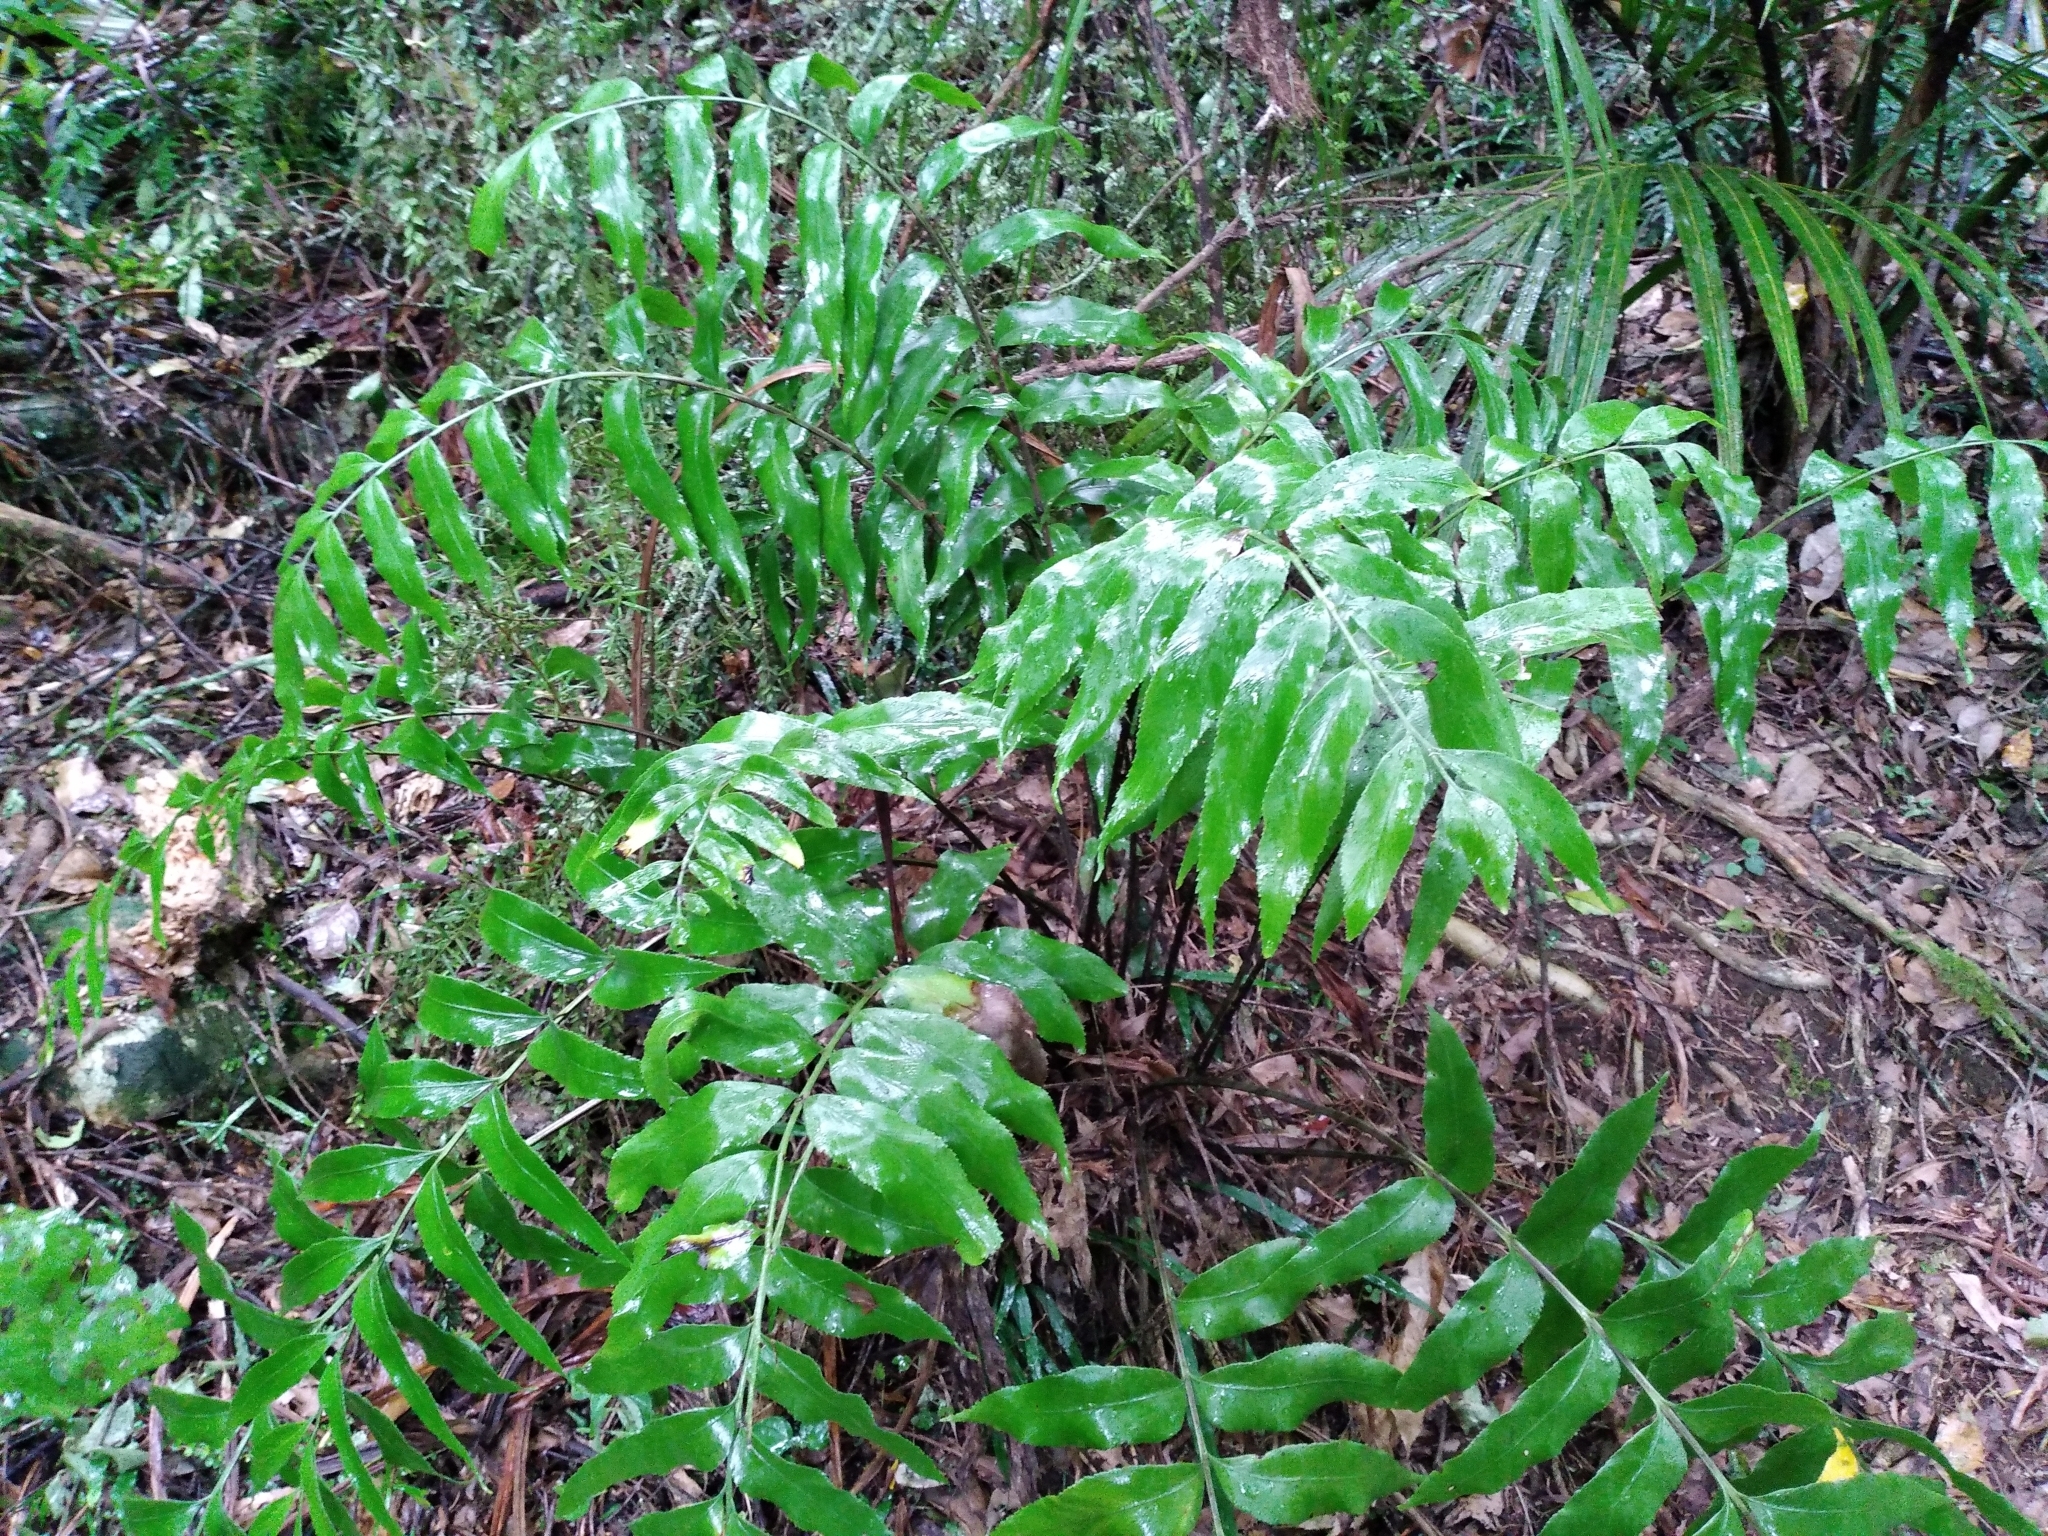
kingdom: Plantae
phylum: Tracheophyta
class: Polypodiopsida
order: Polypodiales
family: Aspleniaceae
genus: Asplenium
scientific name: Asplenium oblongifolium
